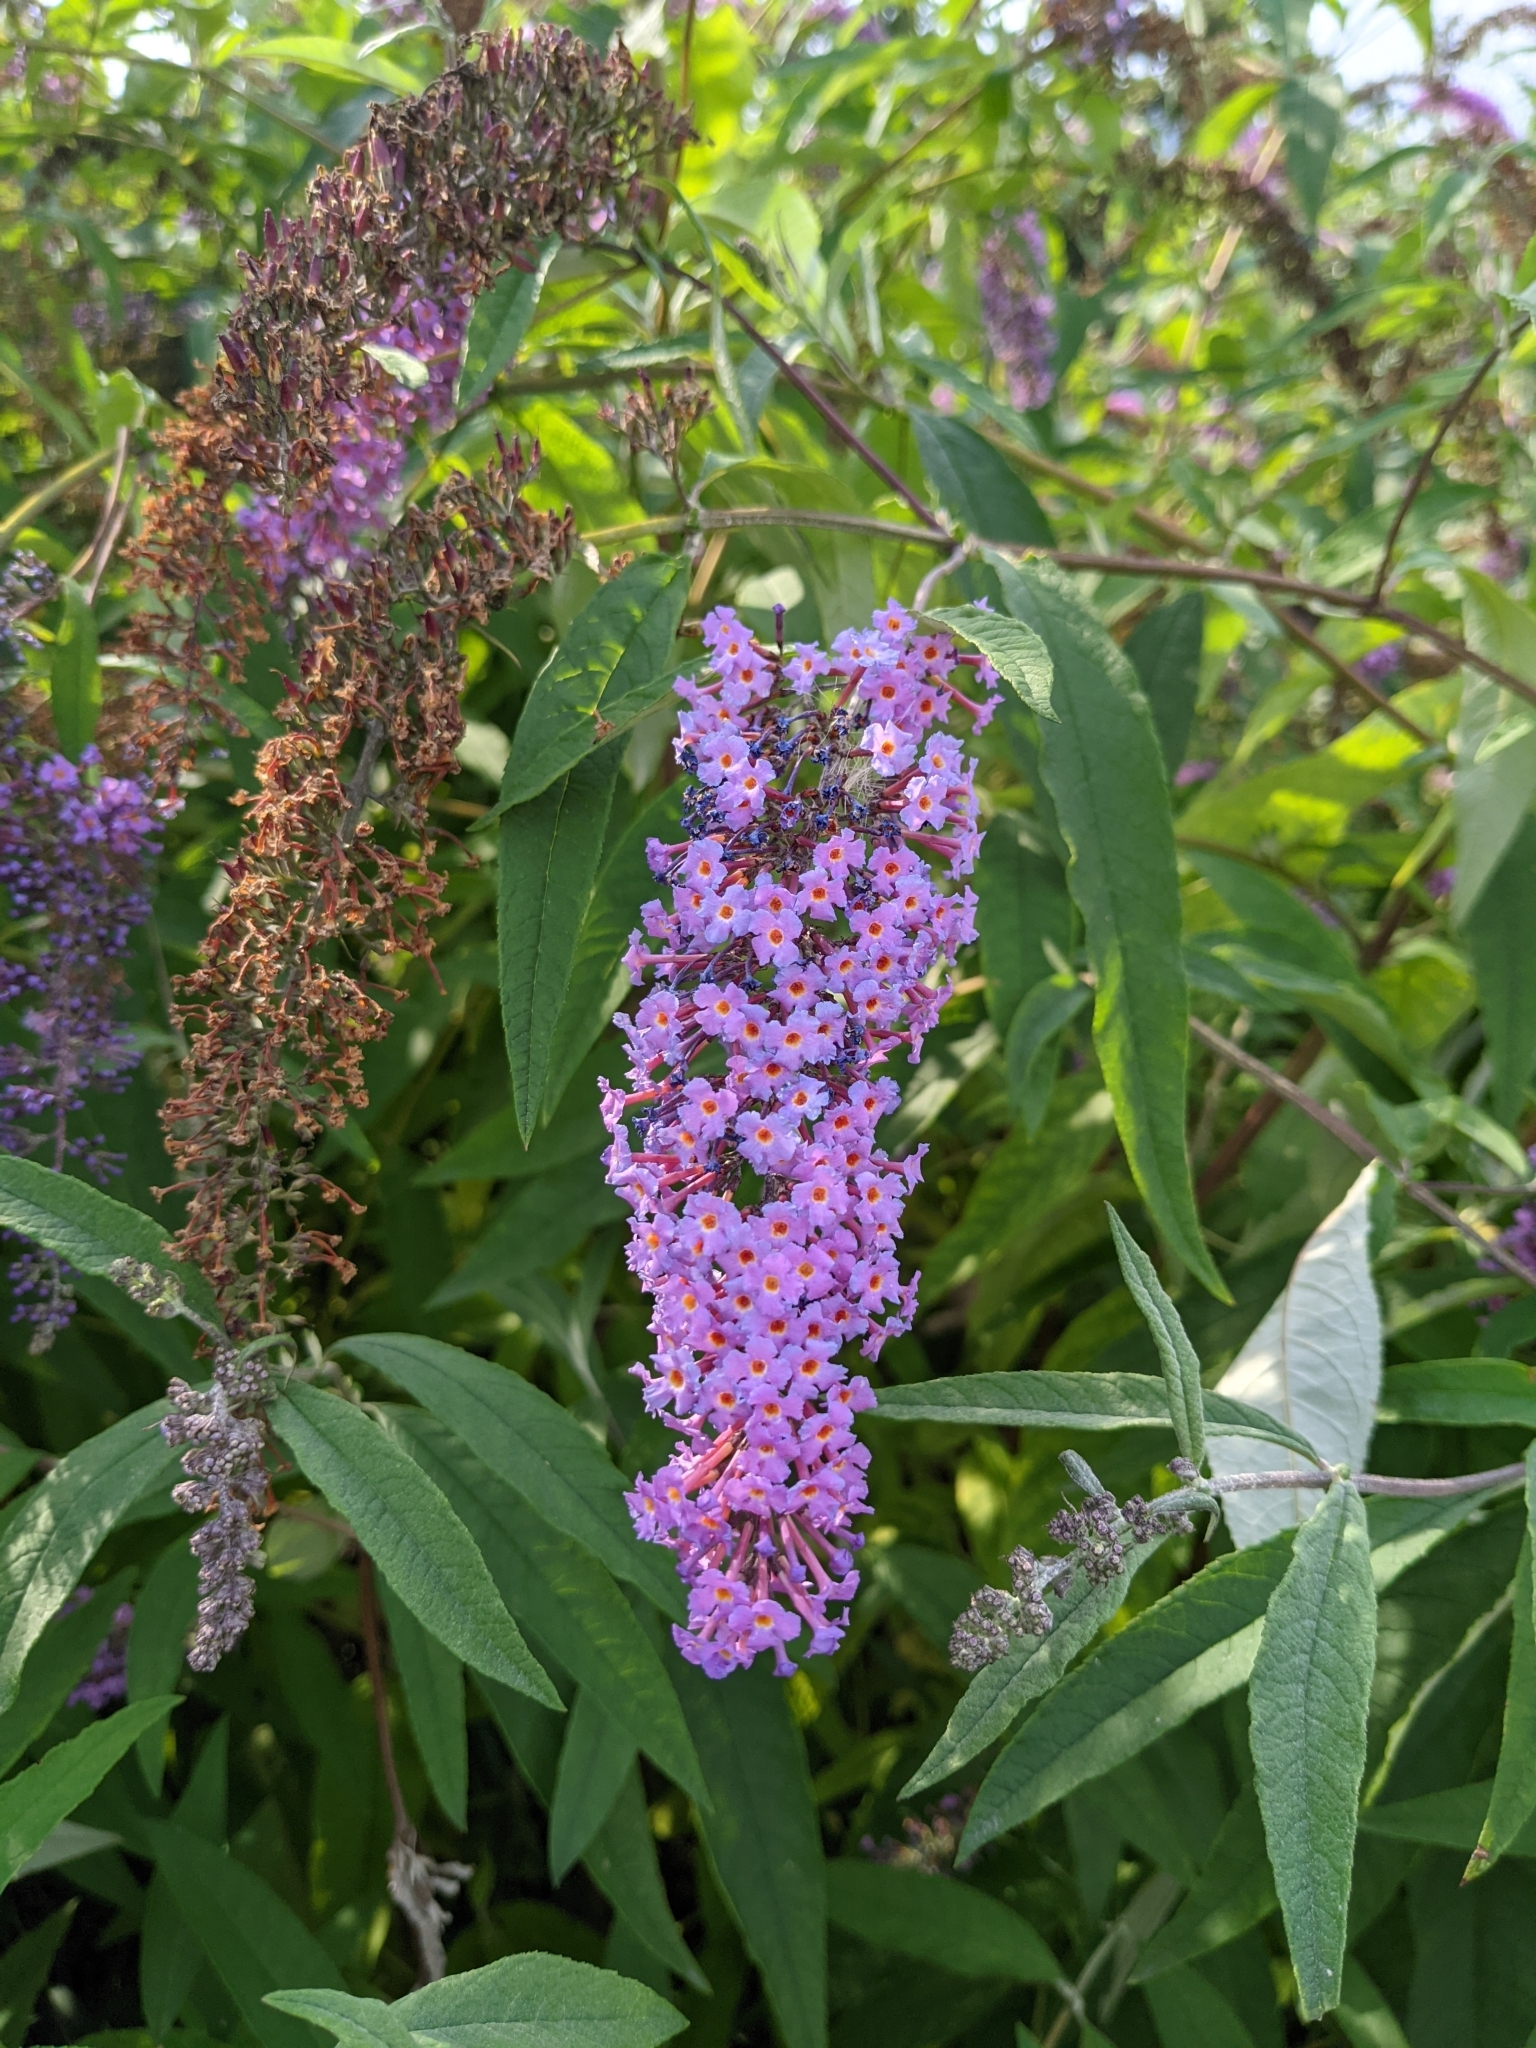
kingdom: Plantae
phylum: Tracheophyta
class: Magnoliopsida
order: Lamiales
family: Scrophulariaceae
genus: Buddleja
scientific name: Buddleja davidii
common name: Butterfly-bush
